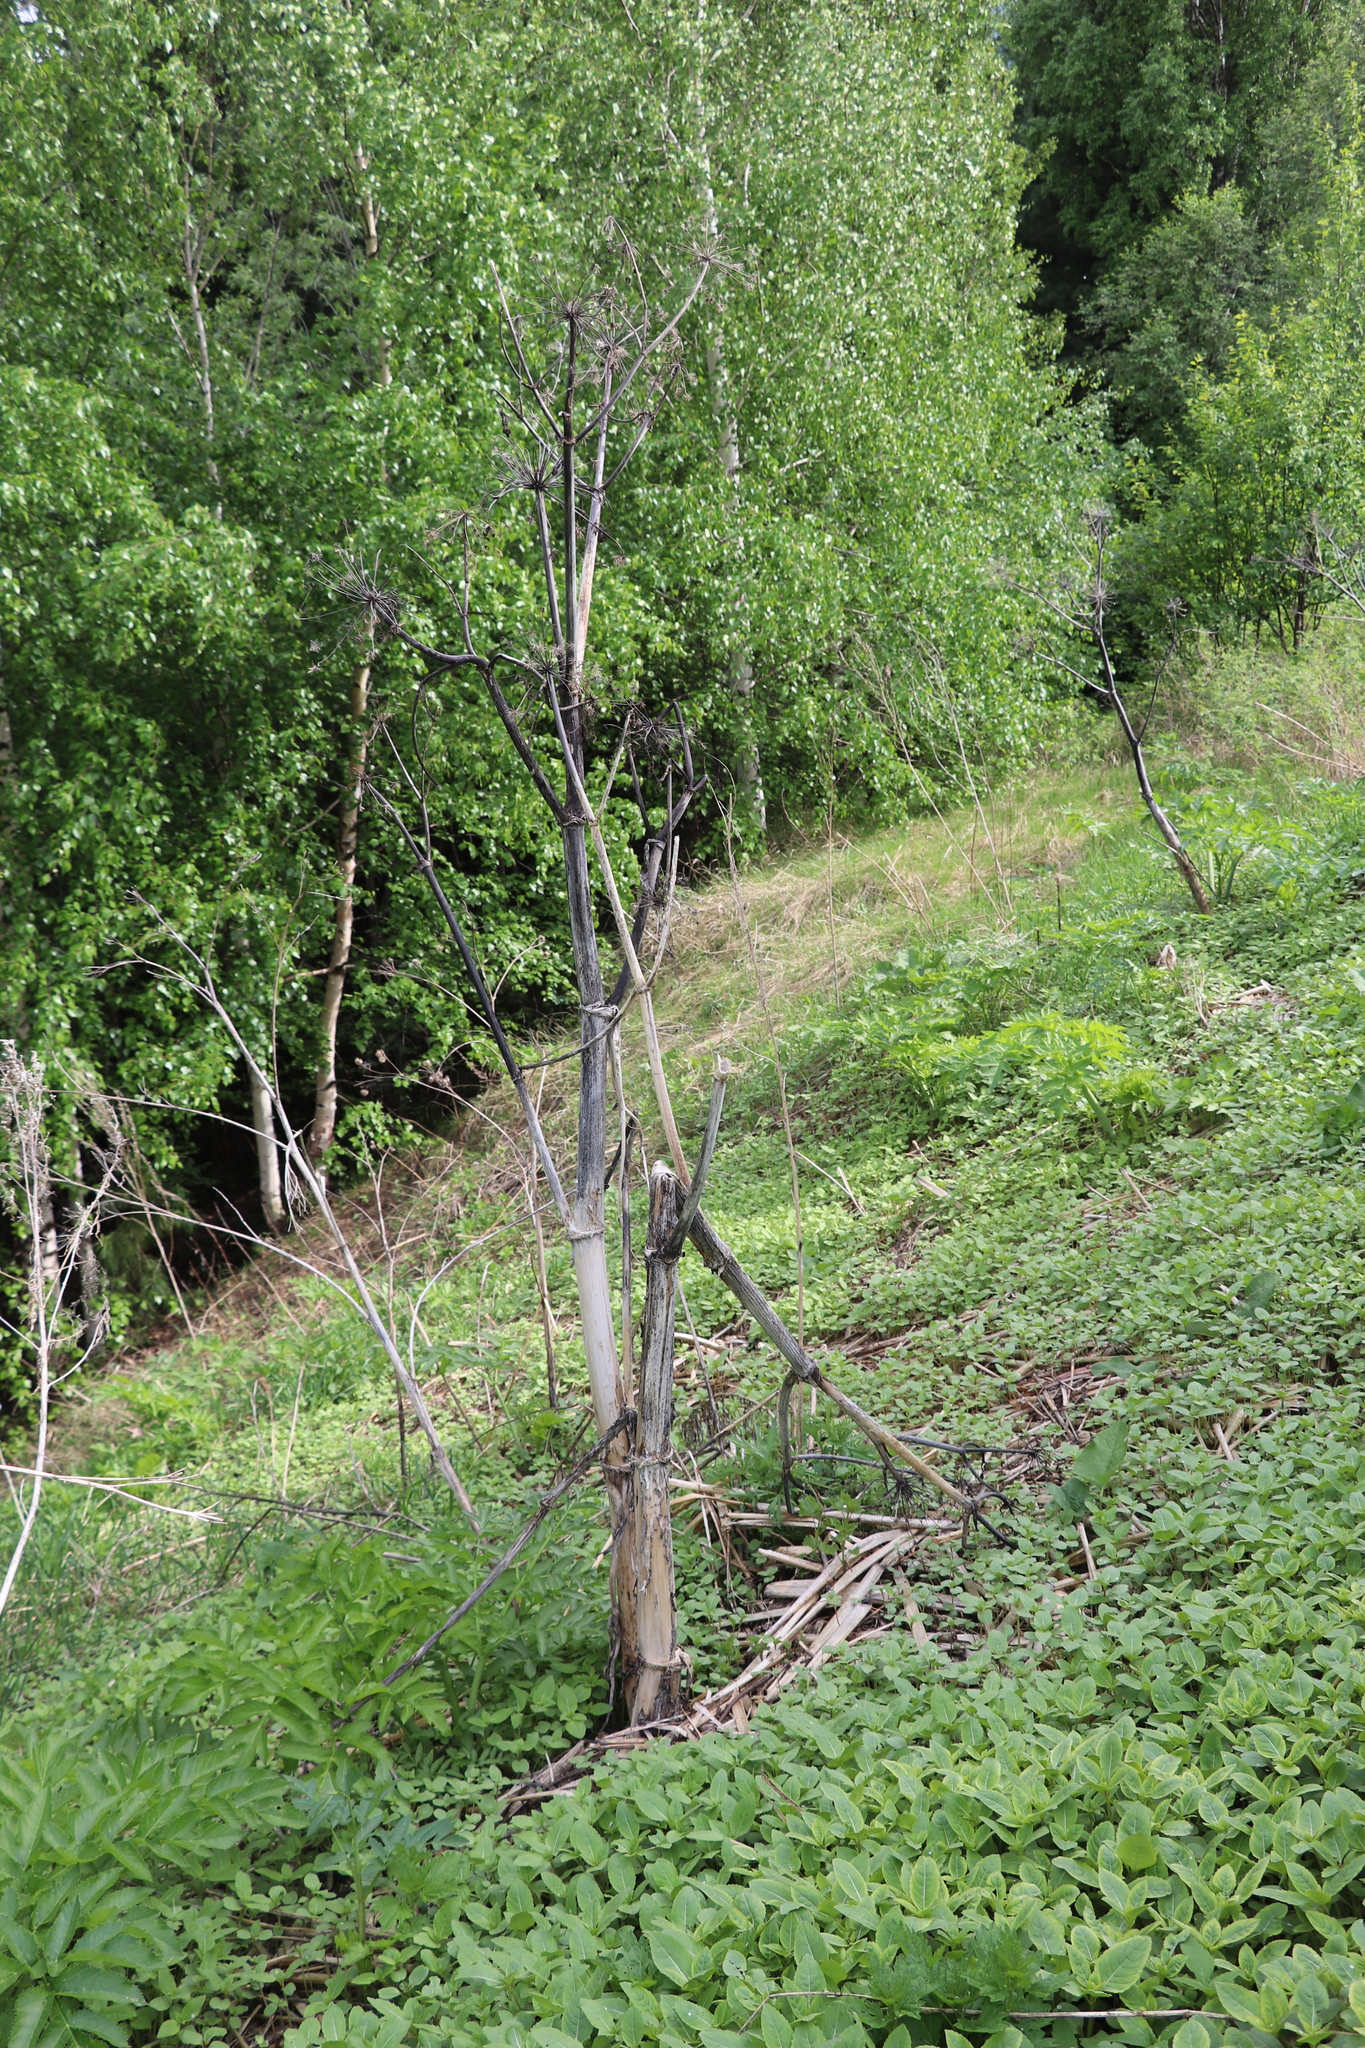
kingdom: Plantae
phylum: Tracheophyta
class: Magnoliopsida
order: Apiales
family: Apiaceae
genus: Heracleum
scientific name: Heracleum sosnowskyi
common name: Sosnowsky's hogweed
